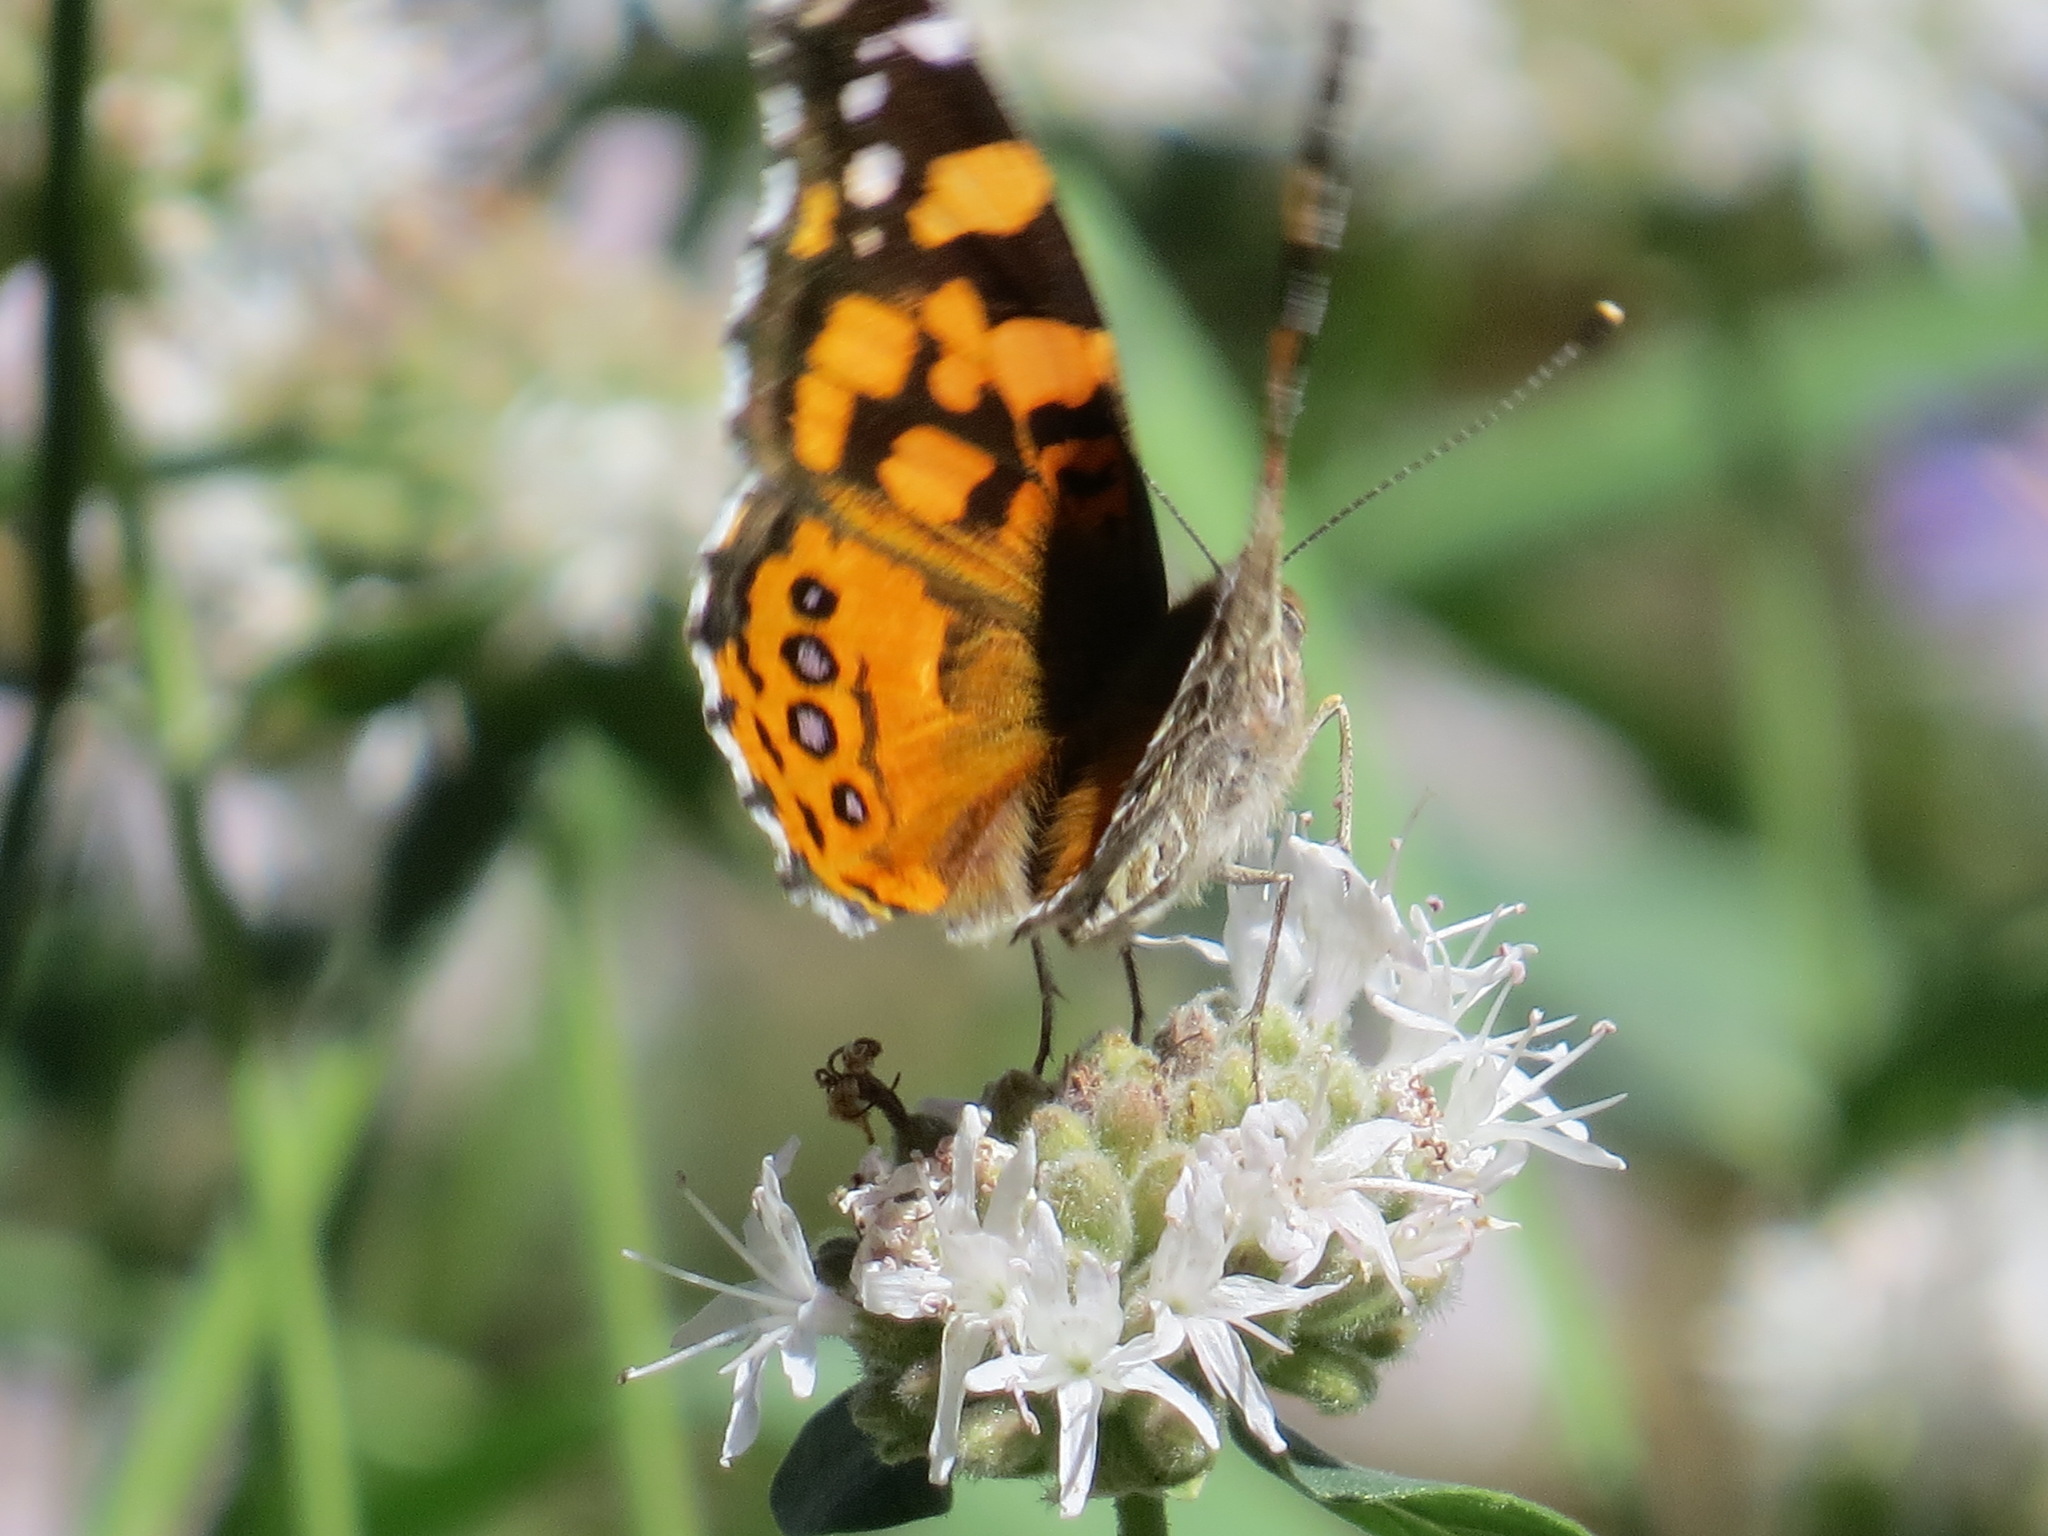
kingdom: Animalia
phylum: Arthropoda
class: Insecta
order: Lepidoptera
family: Nymphalidae
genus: Vanessa
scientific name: Vanessa annabella
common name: West coast lady
